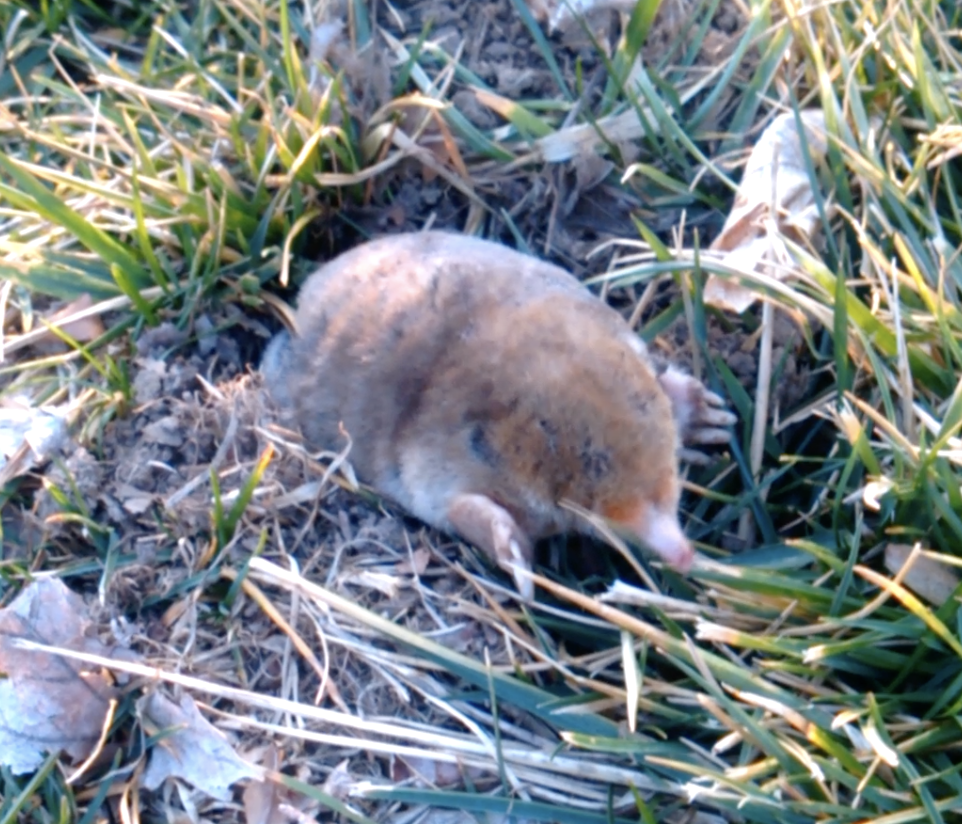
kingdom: Animalia
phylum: Chordata
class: Mammalia
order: Soricomorpha
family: Talpidae
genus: Scalopus
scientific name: Scalopus aquaticus
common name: Eastern mole
